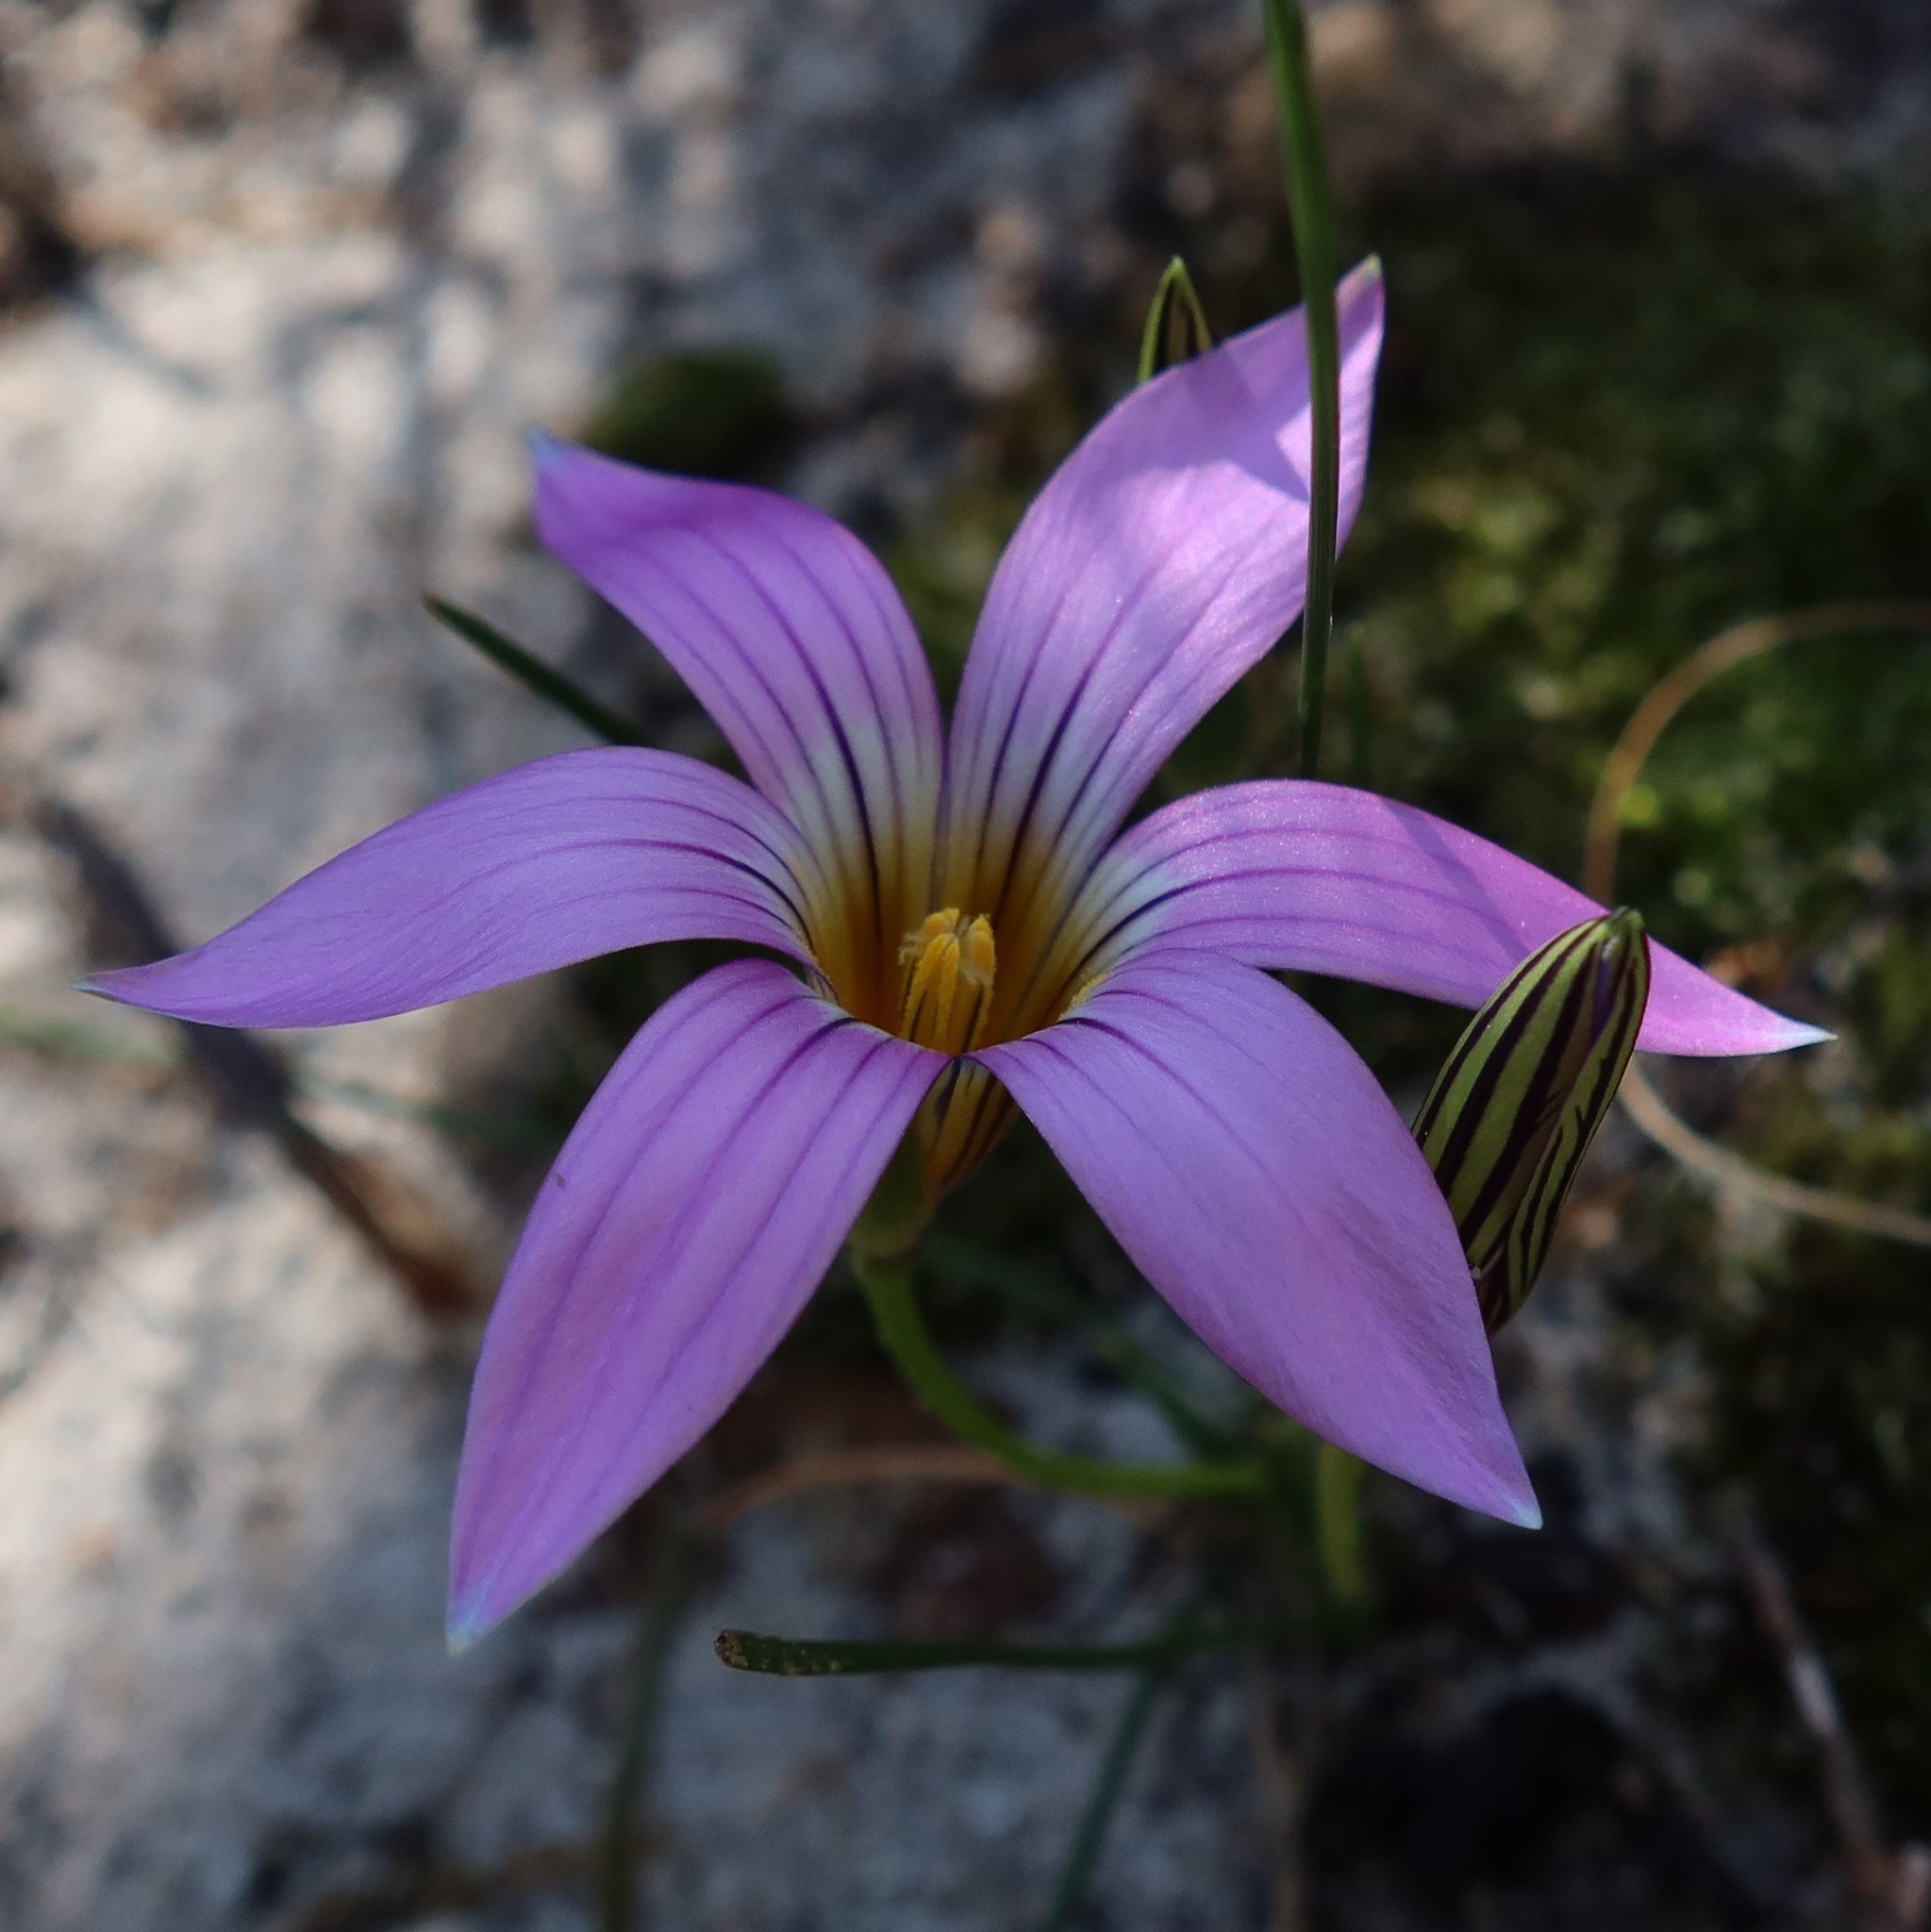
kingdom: Plantae
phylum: Tracheophyta
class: Liliopsida
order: Asparagales
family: Iridaceae
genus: Romulea
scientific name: Romulea rosea
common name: Oniongrass
